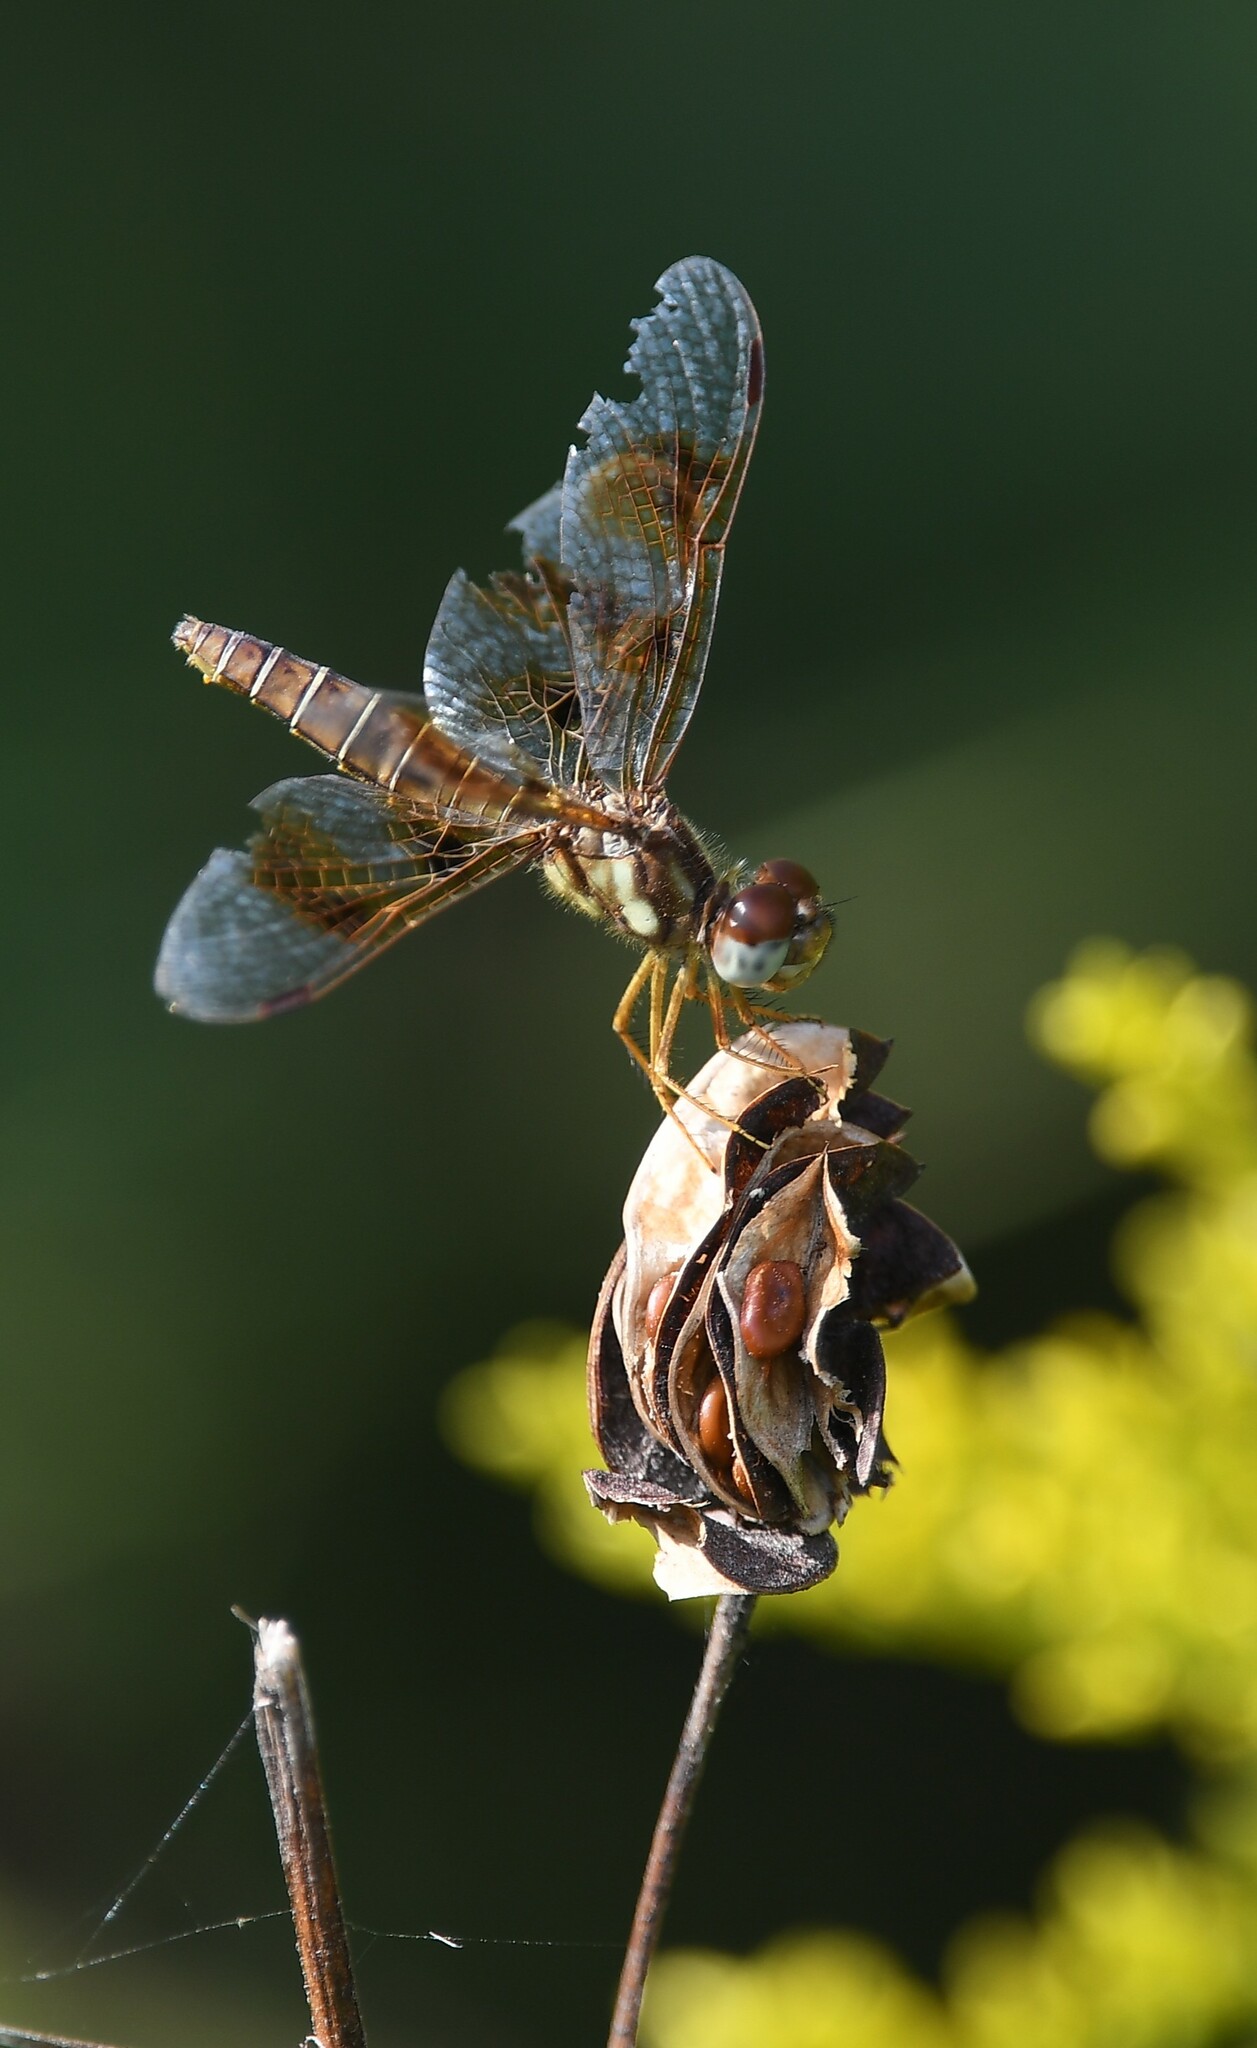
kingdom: Animalia
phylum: Arthropoda
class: Insecta
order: Odonata
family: Libellulidae
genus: Perithemis
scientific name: Perithemis tenera
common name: Eastern amberwing
